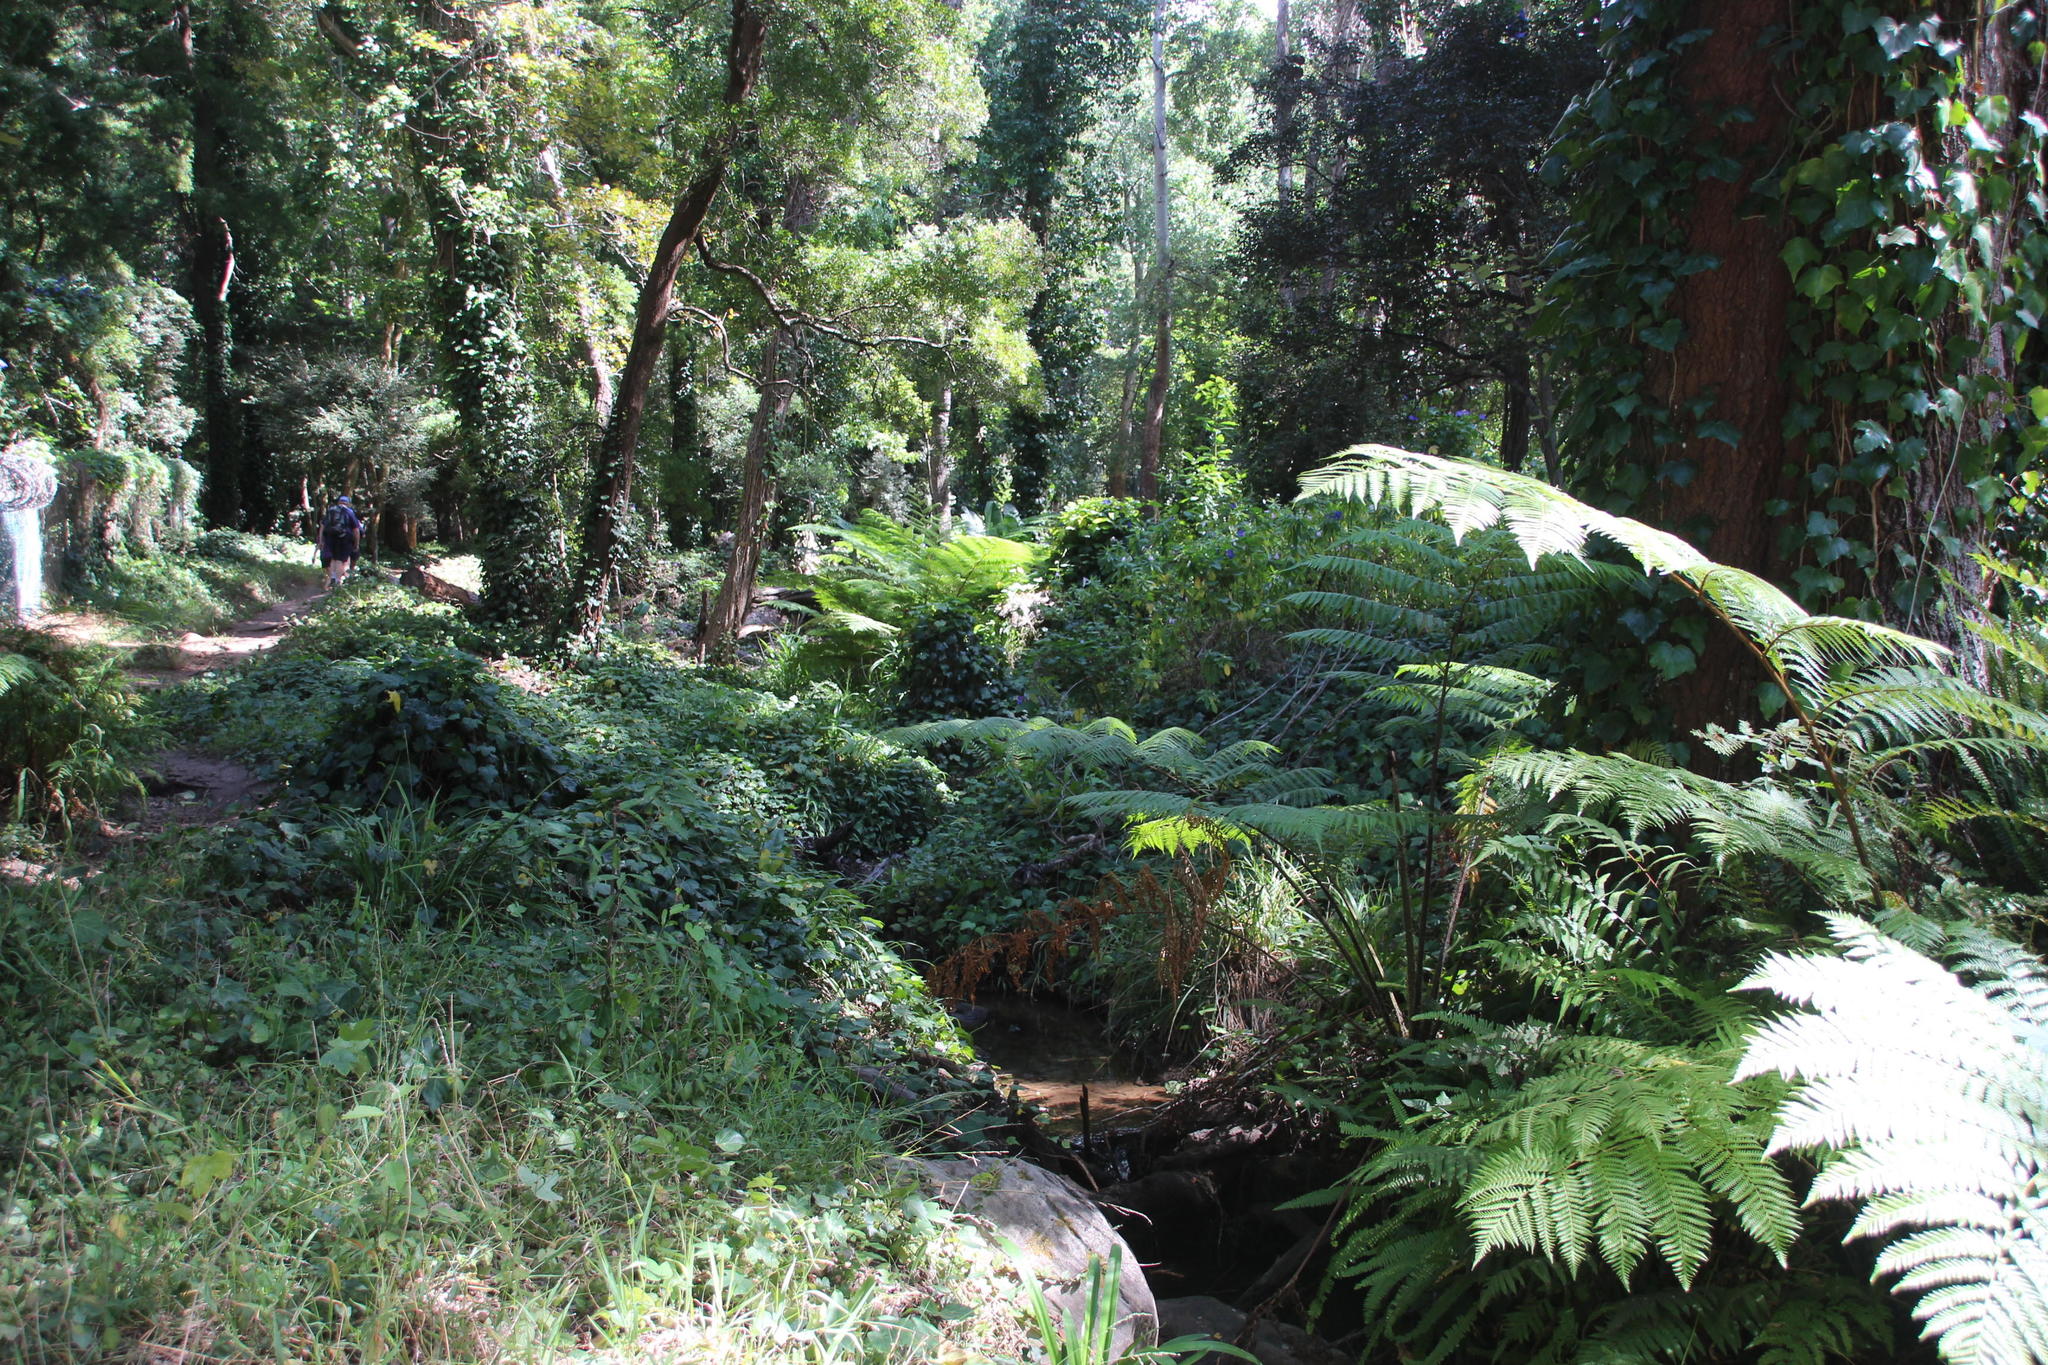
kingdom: Plantae
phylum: Tracheophyta
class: Polypodiopsida
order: Cyatheales
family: Cyatheaceae
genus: Sphaeropteris
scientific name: Sphaeropteris cooperi
